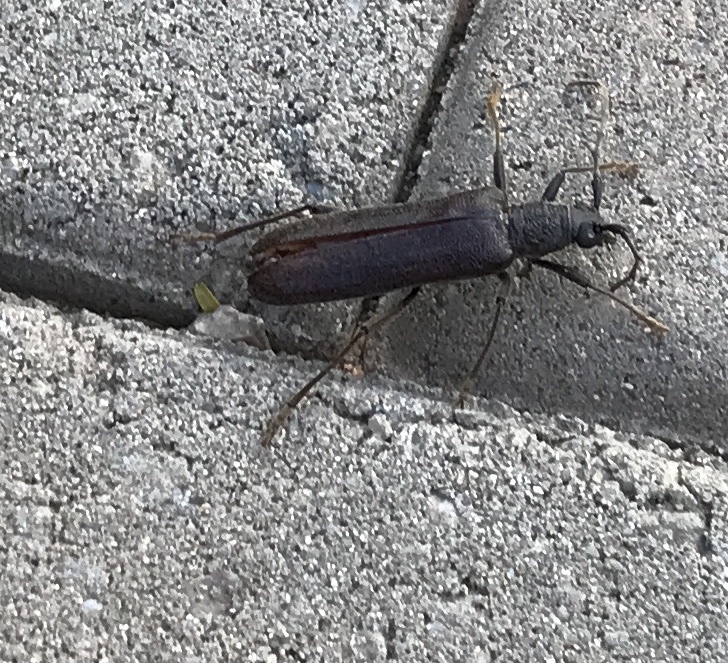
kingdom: Animalia
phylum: Arthropoda
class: Insecta
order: Coleoptera
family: Cerambycidae
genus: Trichocnemis
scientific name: Trichocnemis spiculatus
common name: Long-horned beetle
